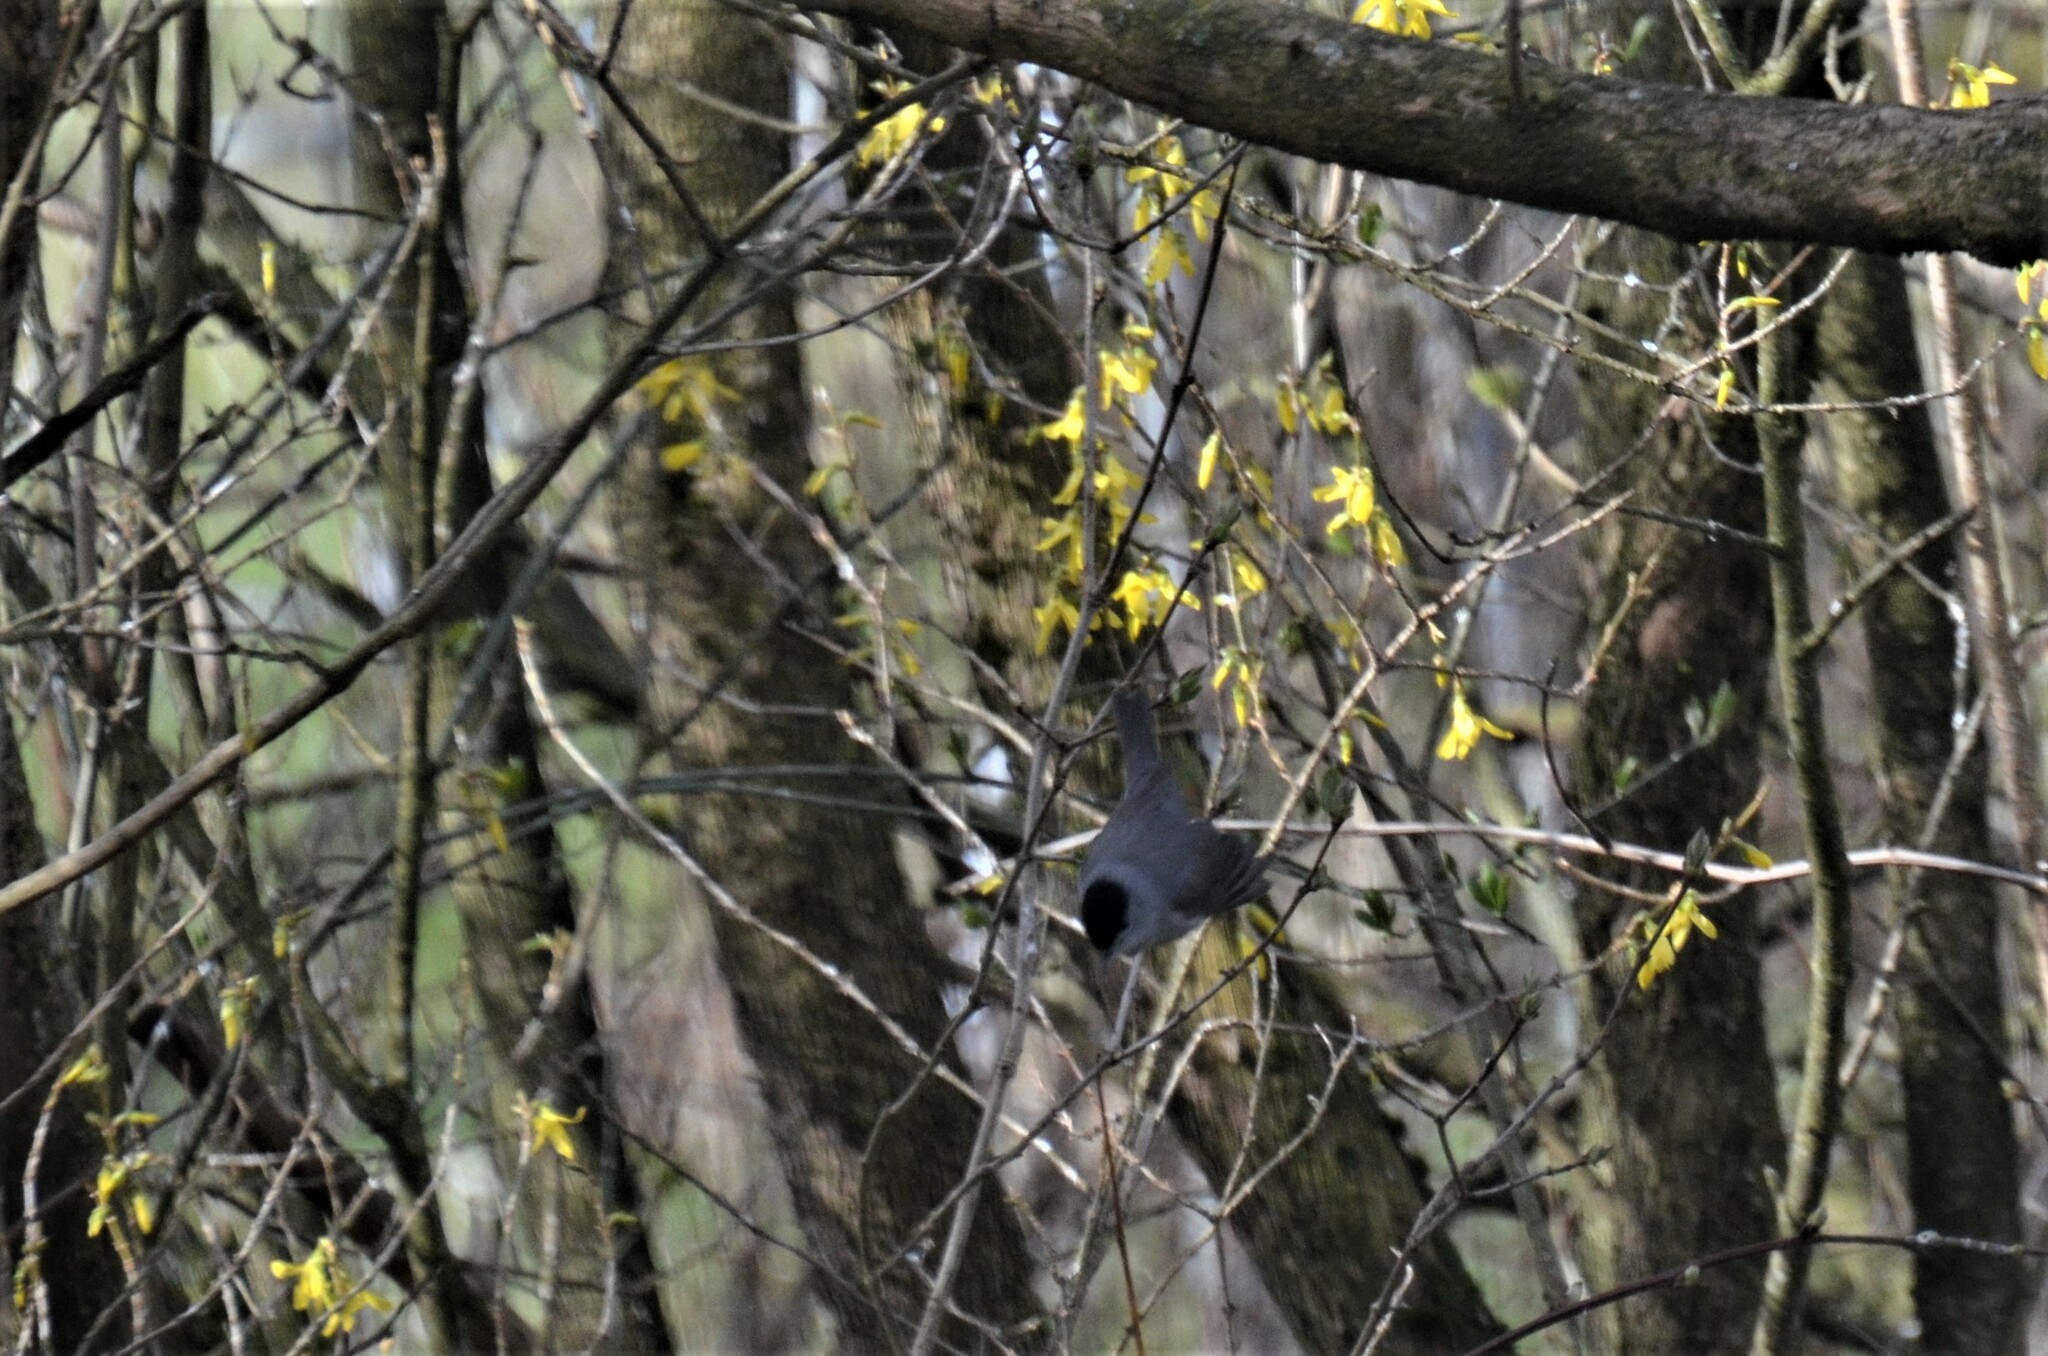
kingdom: Animalia
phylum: Chordata
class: Aves
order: Passeriformes
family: Sylviidae
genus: Sylvia
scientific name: Sylvia atricapilla
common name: Eurasian blackcap
